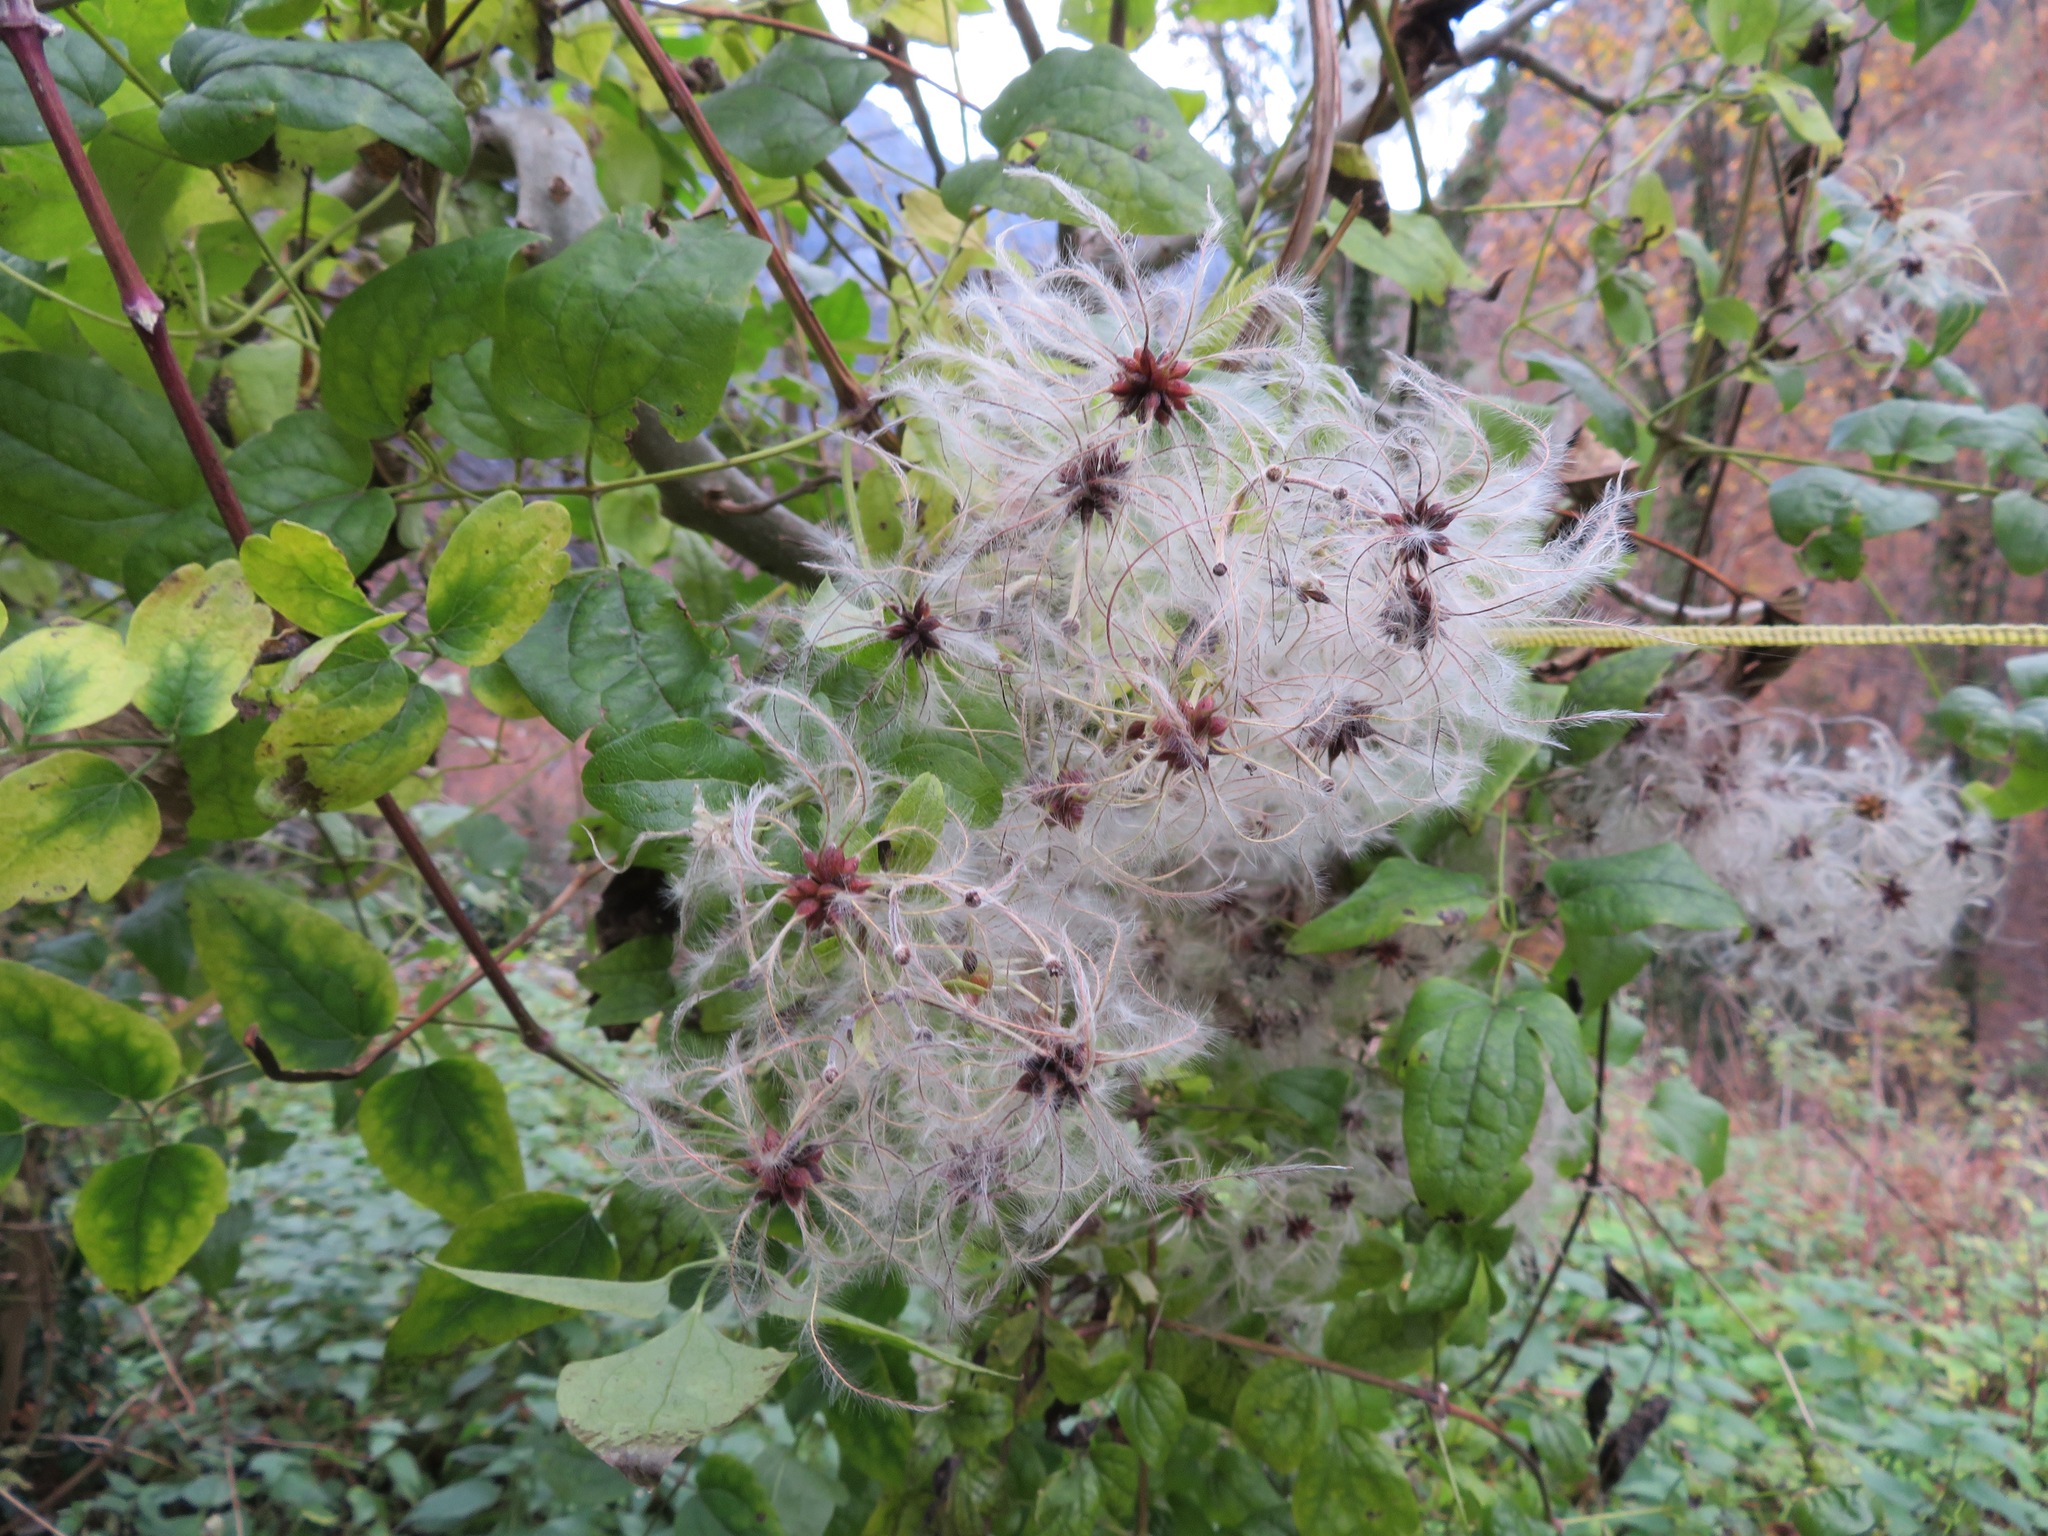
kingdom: Plantae
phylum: Tracheophyta
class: Magnoliopsida
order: Ranunculales
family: Ranunculaceae
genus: Clematis
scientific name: Clematis vitalba
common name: Evergreen clematis
